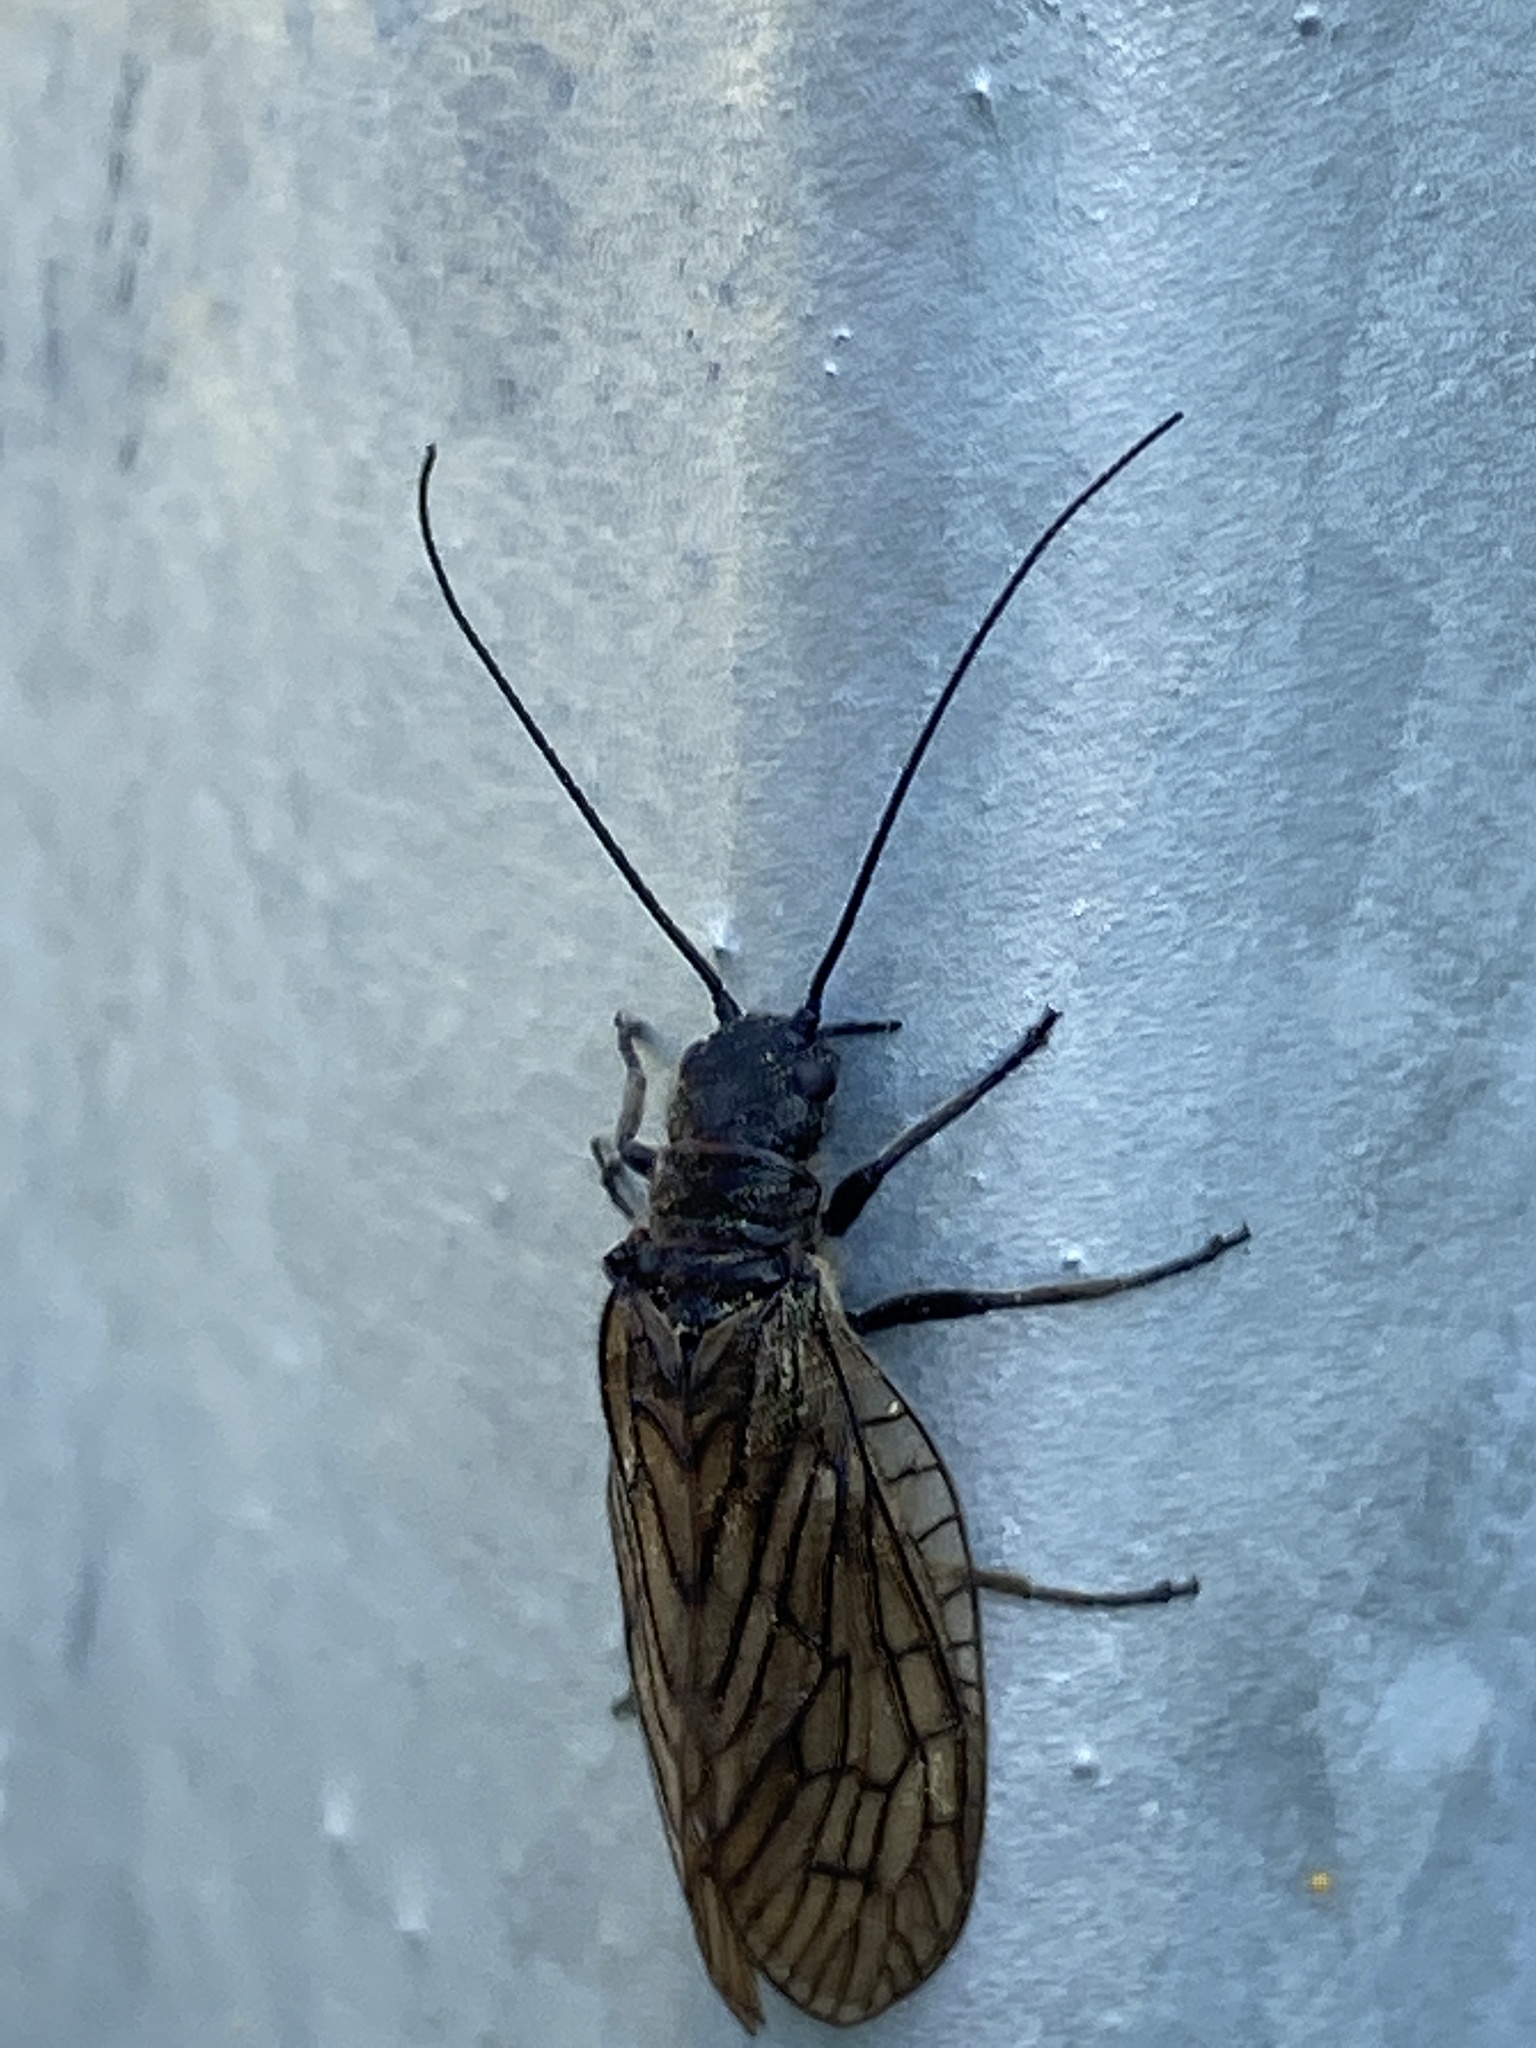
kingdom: Animalia
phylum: Arthropoda
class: Insecta
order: Megaloptera
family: Sialidae
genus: Sialis
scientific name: Sialis
